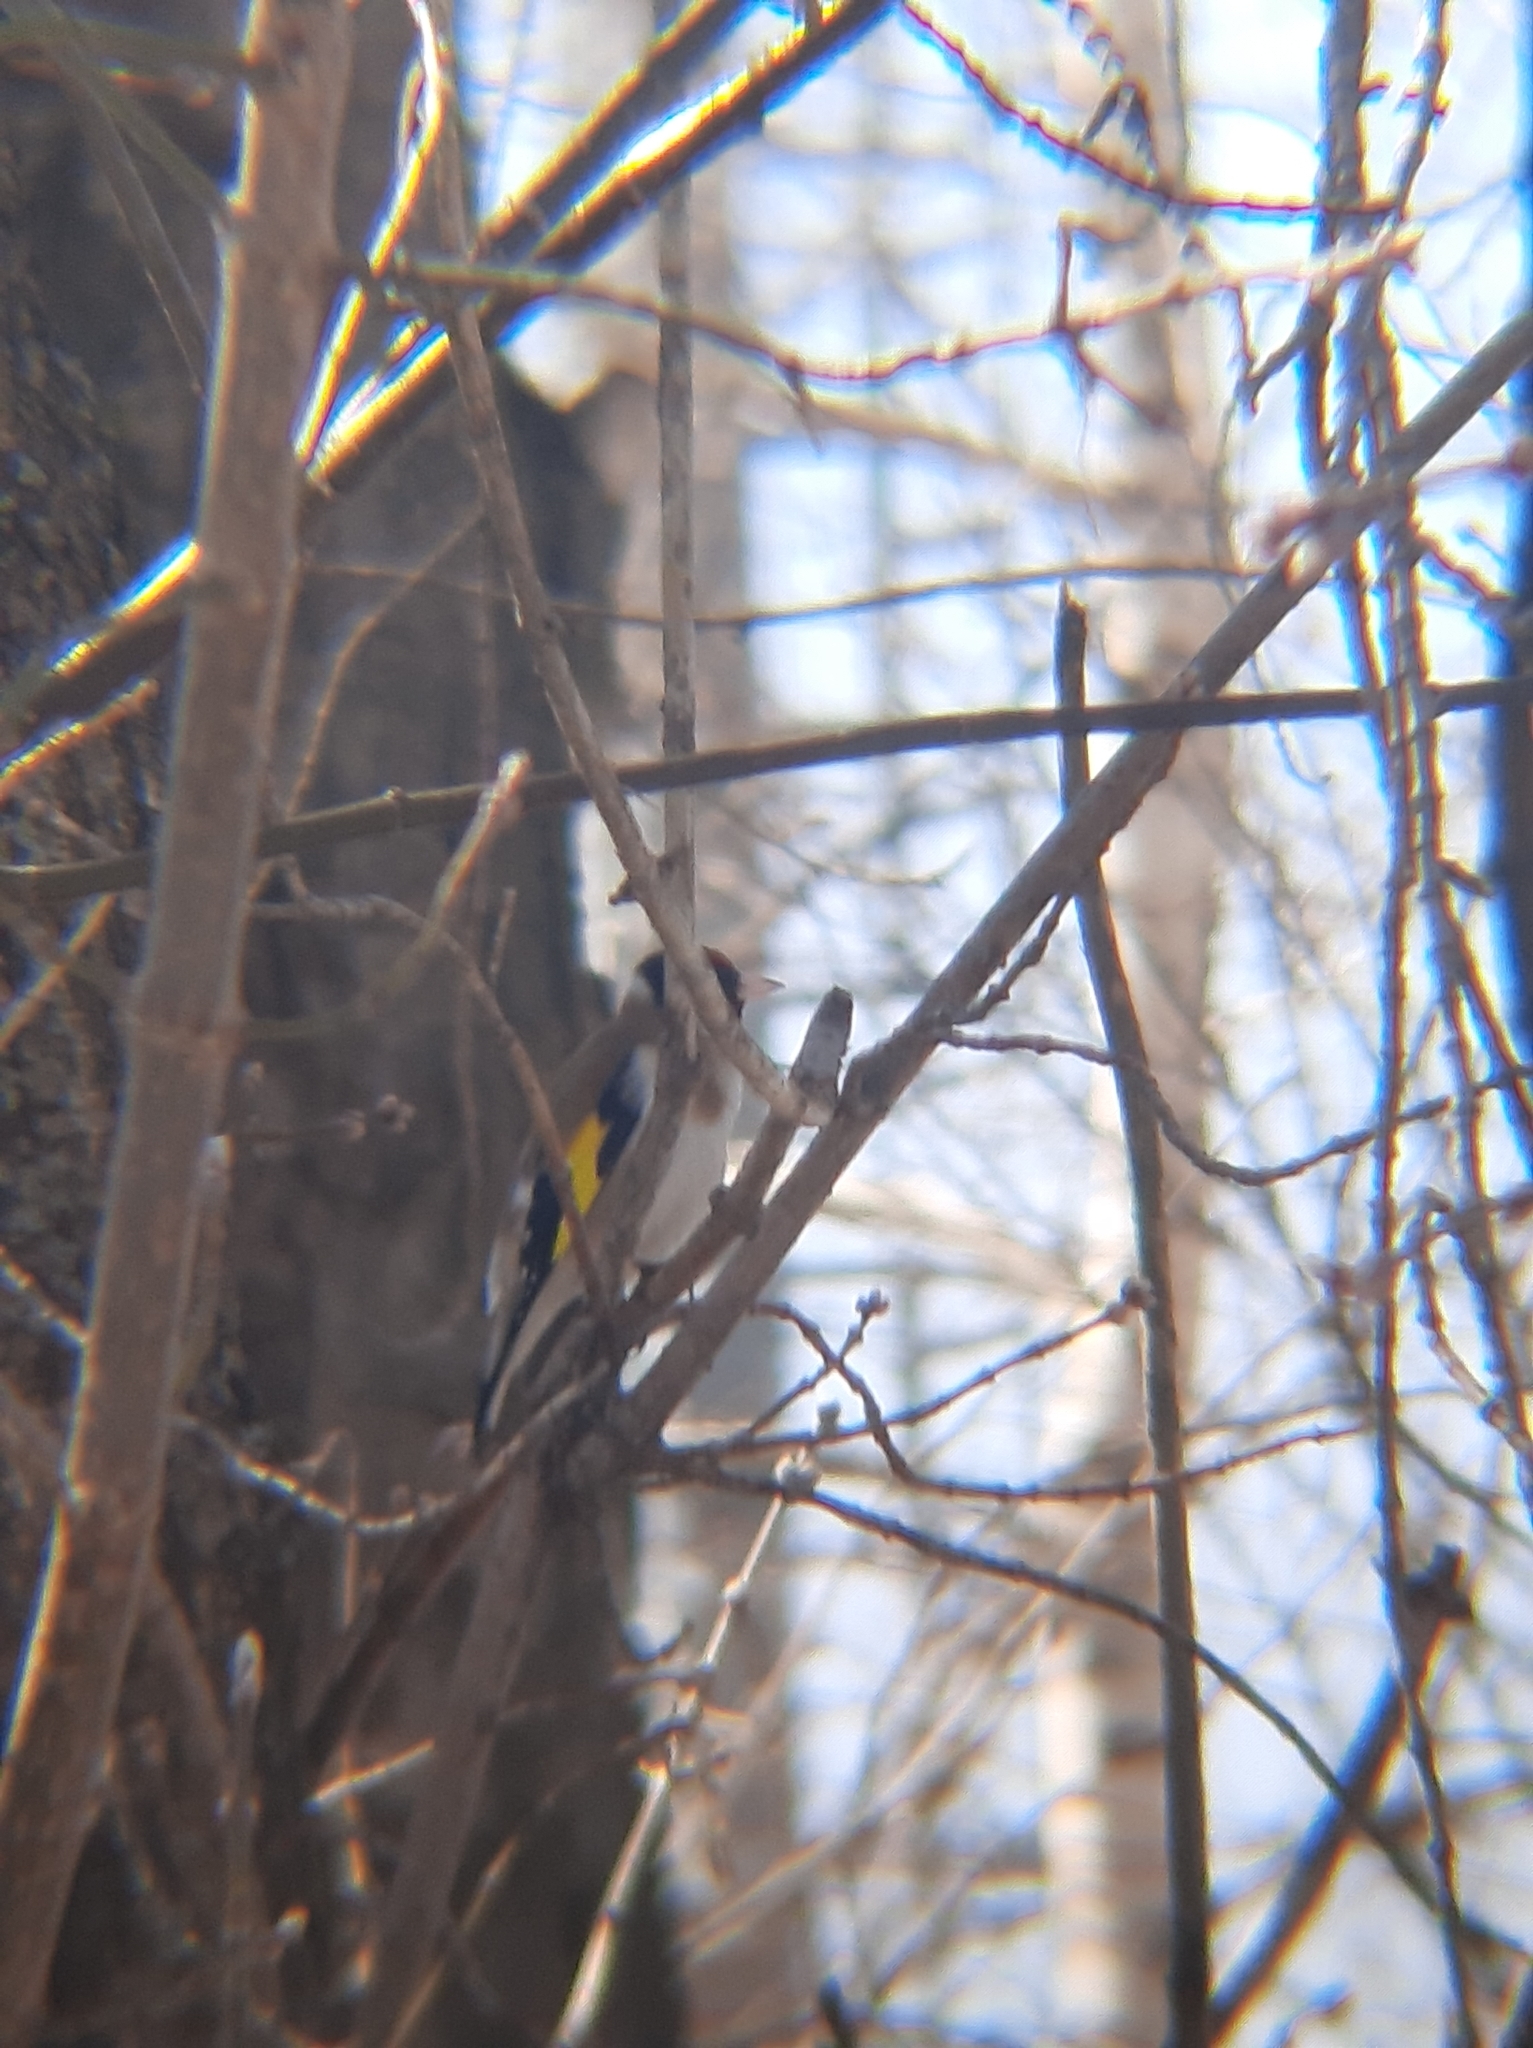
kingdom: Animalia
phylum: Chordata
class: Aves
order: Passeriformes
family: Fringillidae
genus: Carduelis
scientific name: Carduelis carduelis
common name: European goldfinch
